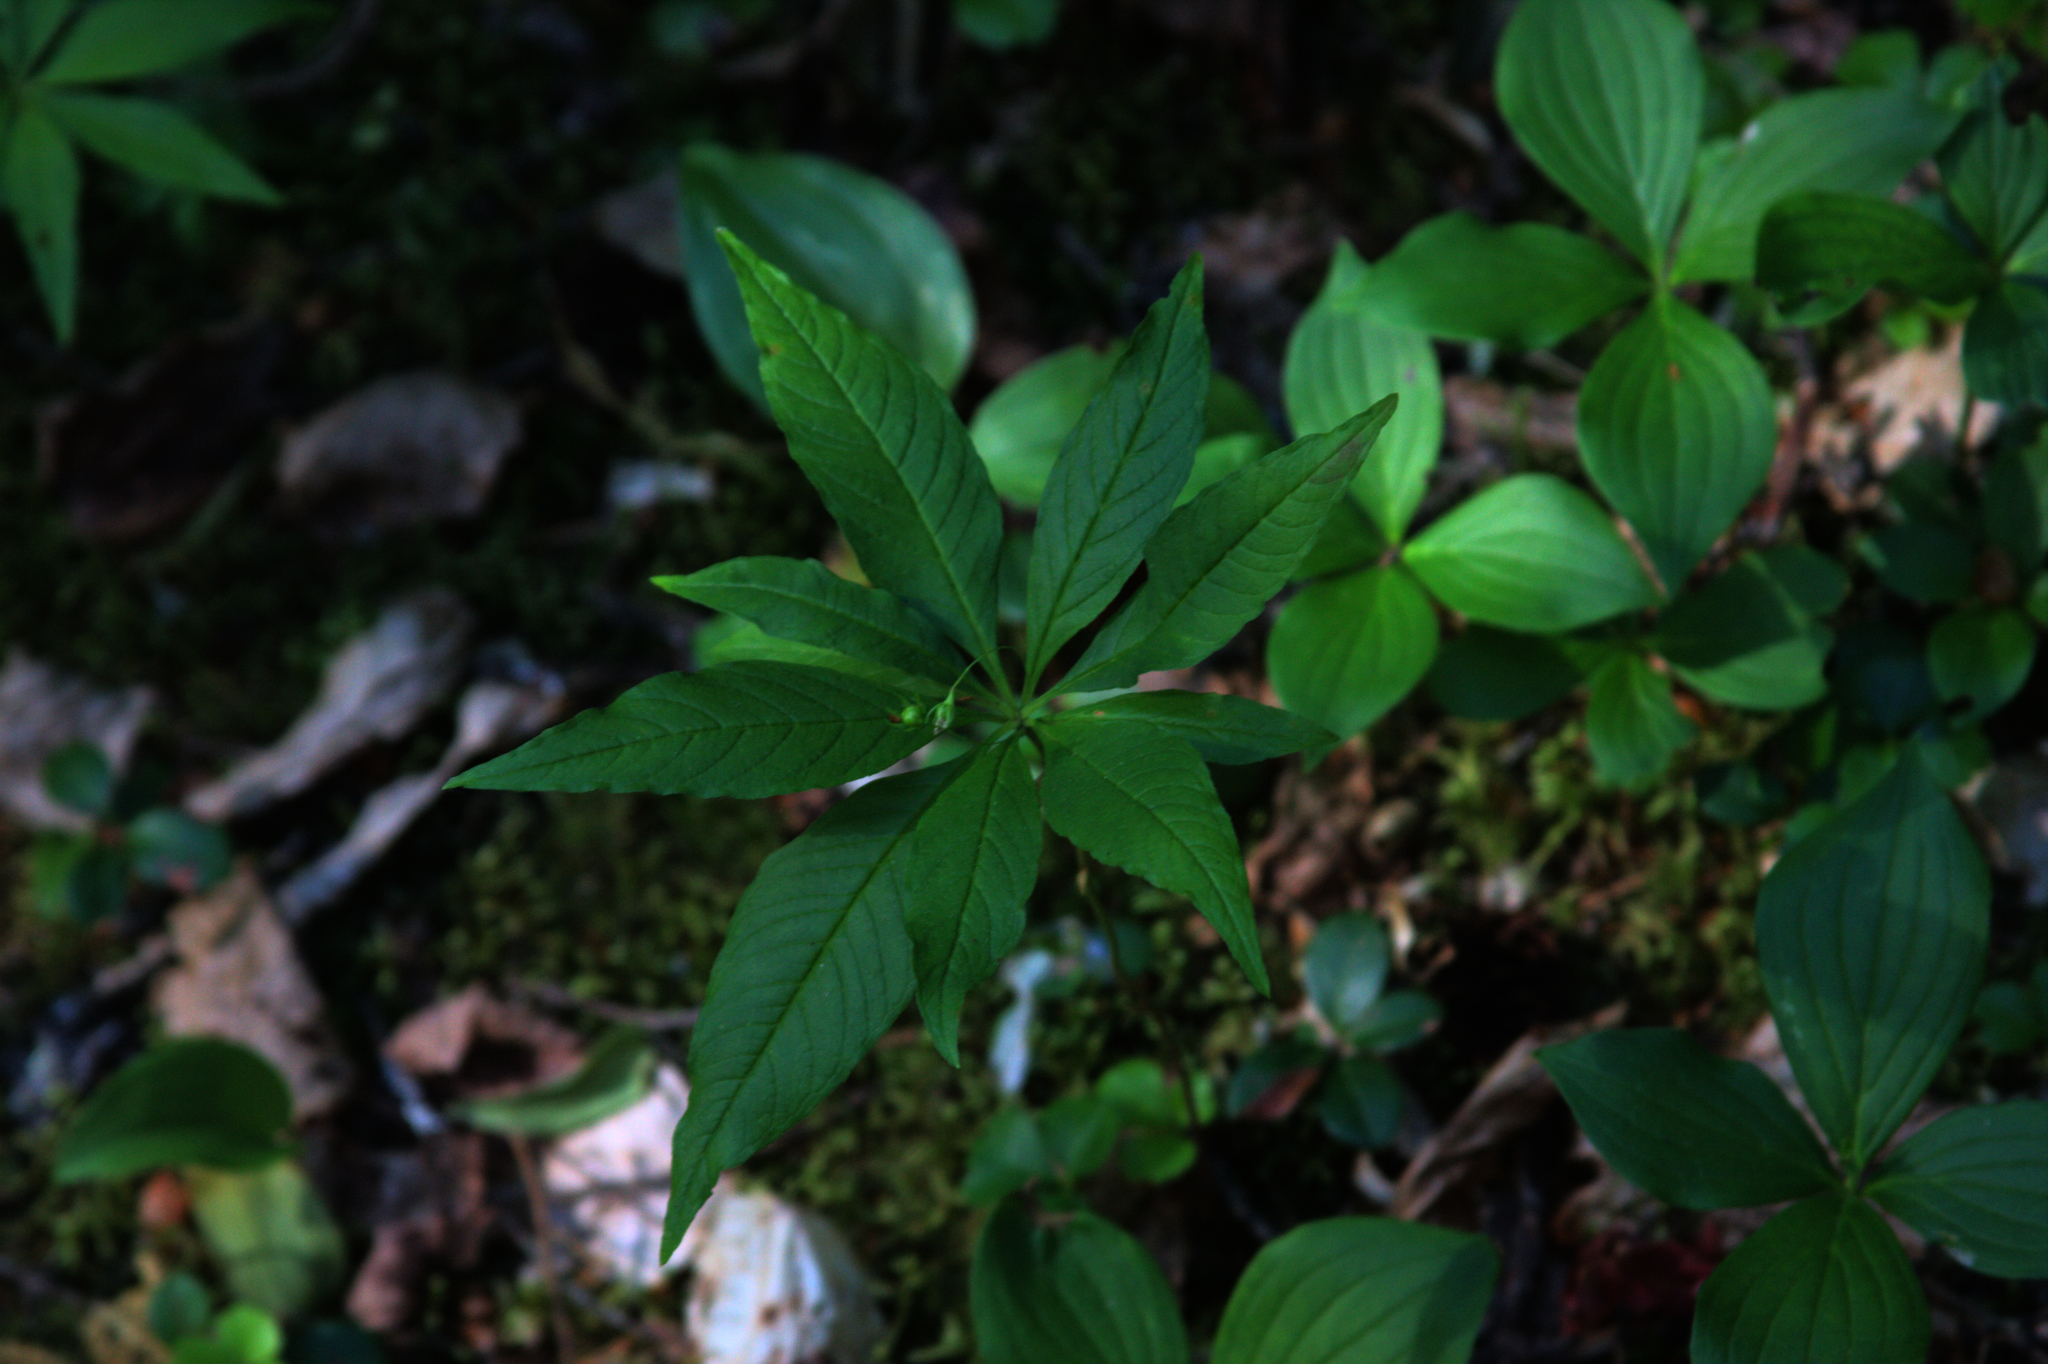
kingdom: Plantae
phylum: Tracheophyta
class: Magnoliopsida
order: Ericales
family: Primulaceae
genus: Lysimachia
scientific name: Lysimachia borealis
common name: American starflower
